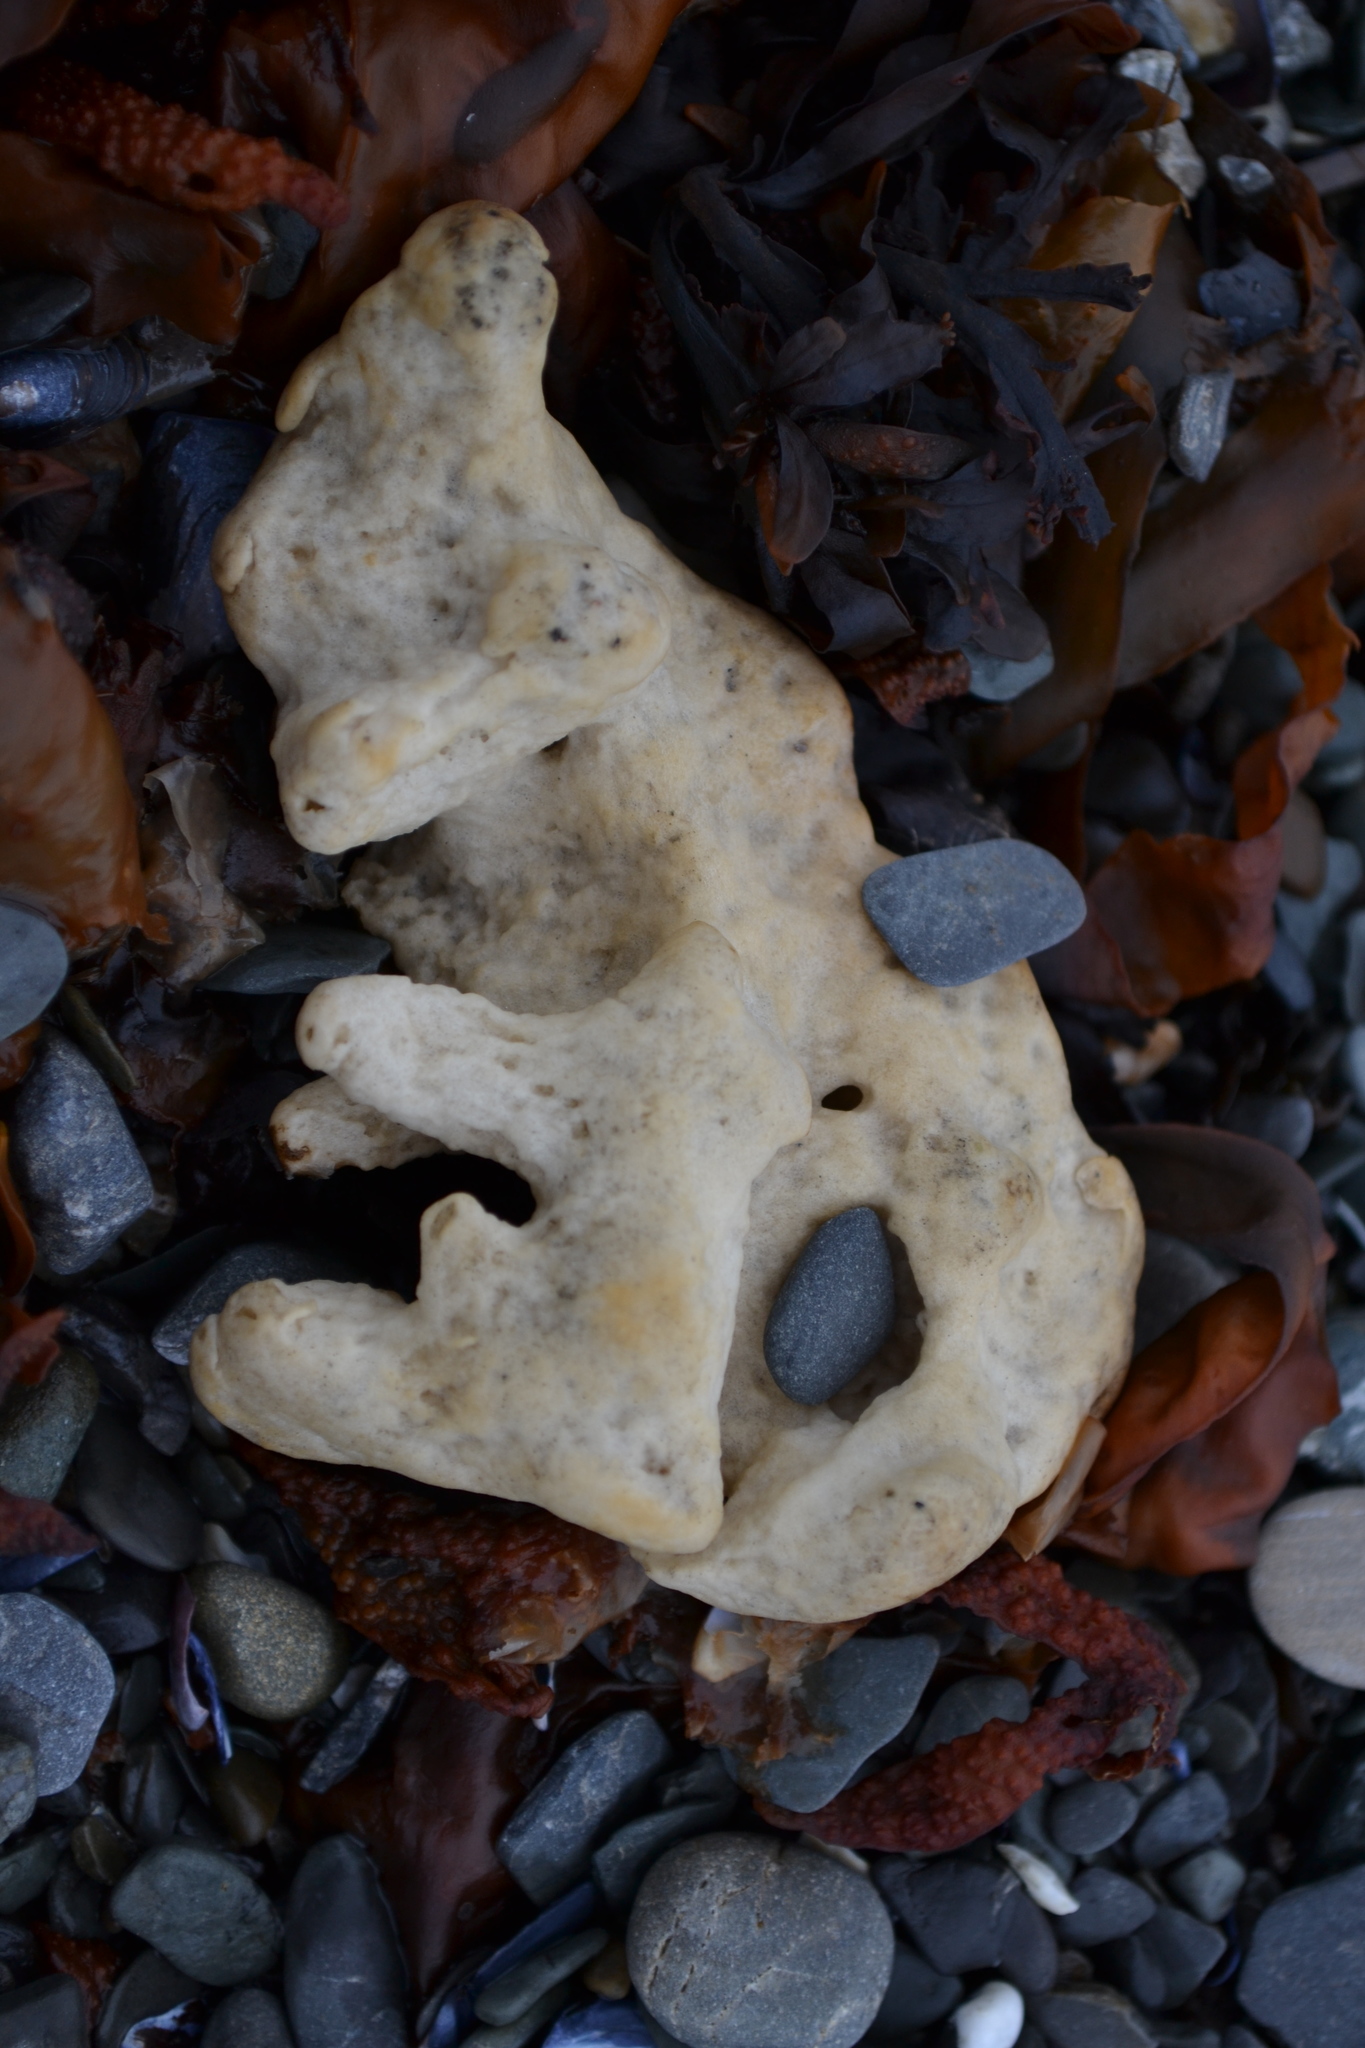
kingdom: Animalia
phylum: Porifera
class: Demospongiae
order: Suberitida
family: Halichondriidae
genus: Halichondria
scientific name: Halichondria panicea
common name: Breadcrumb sponge
